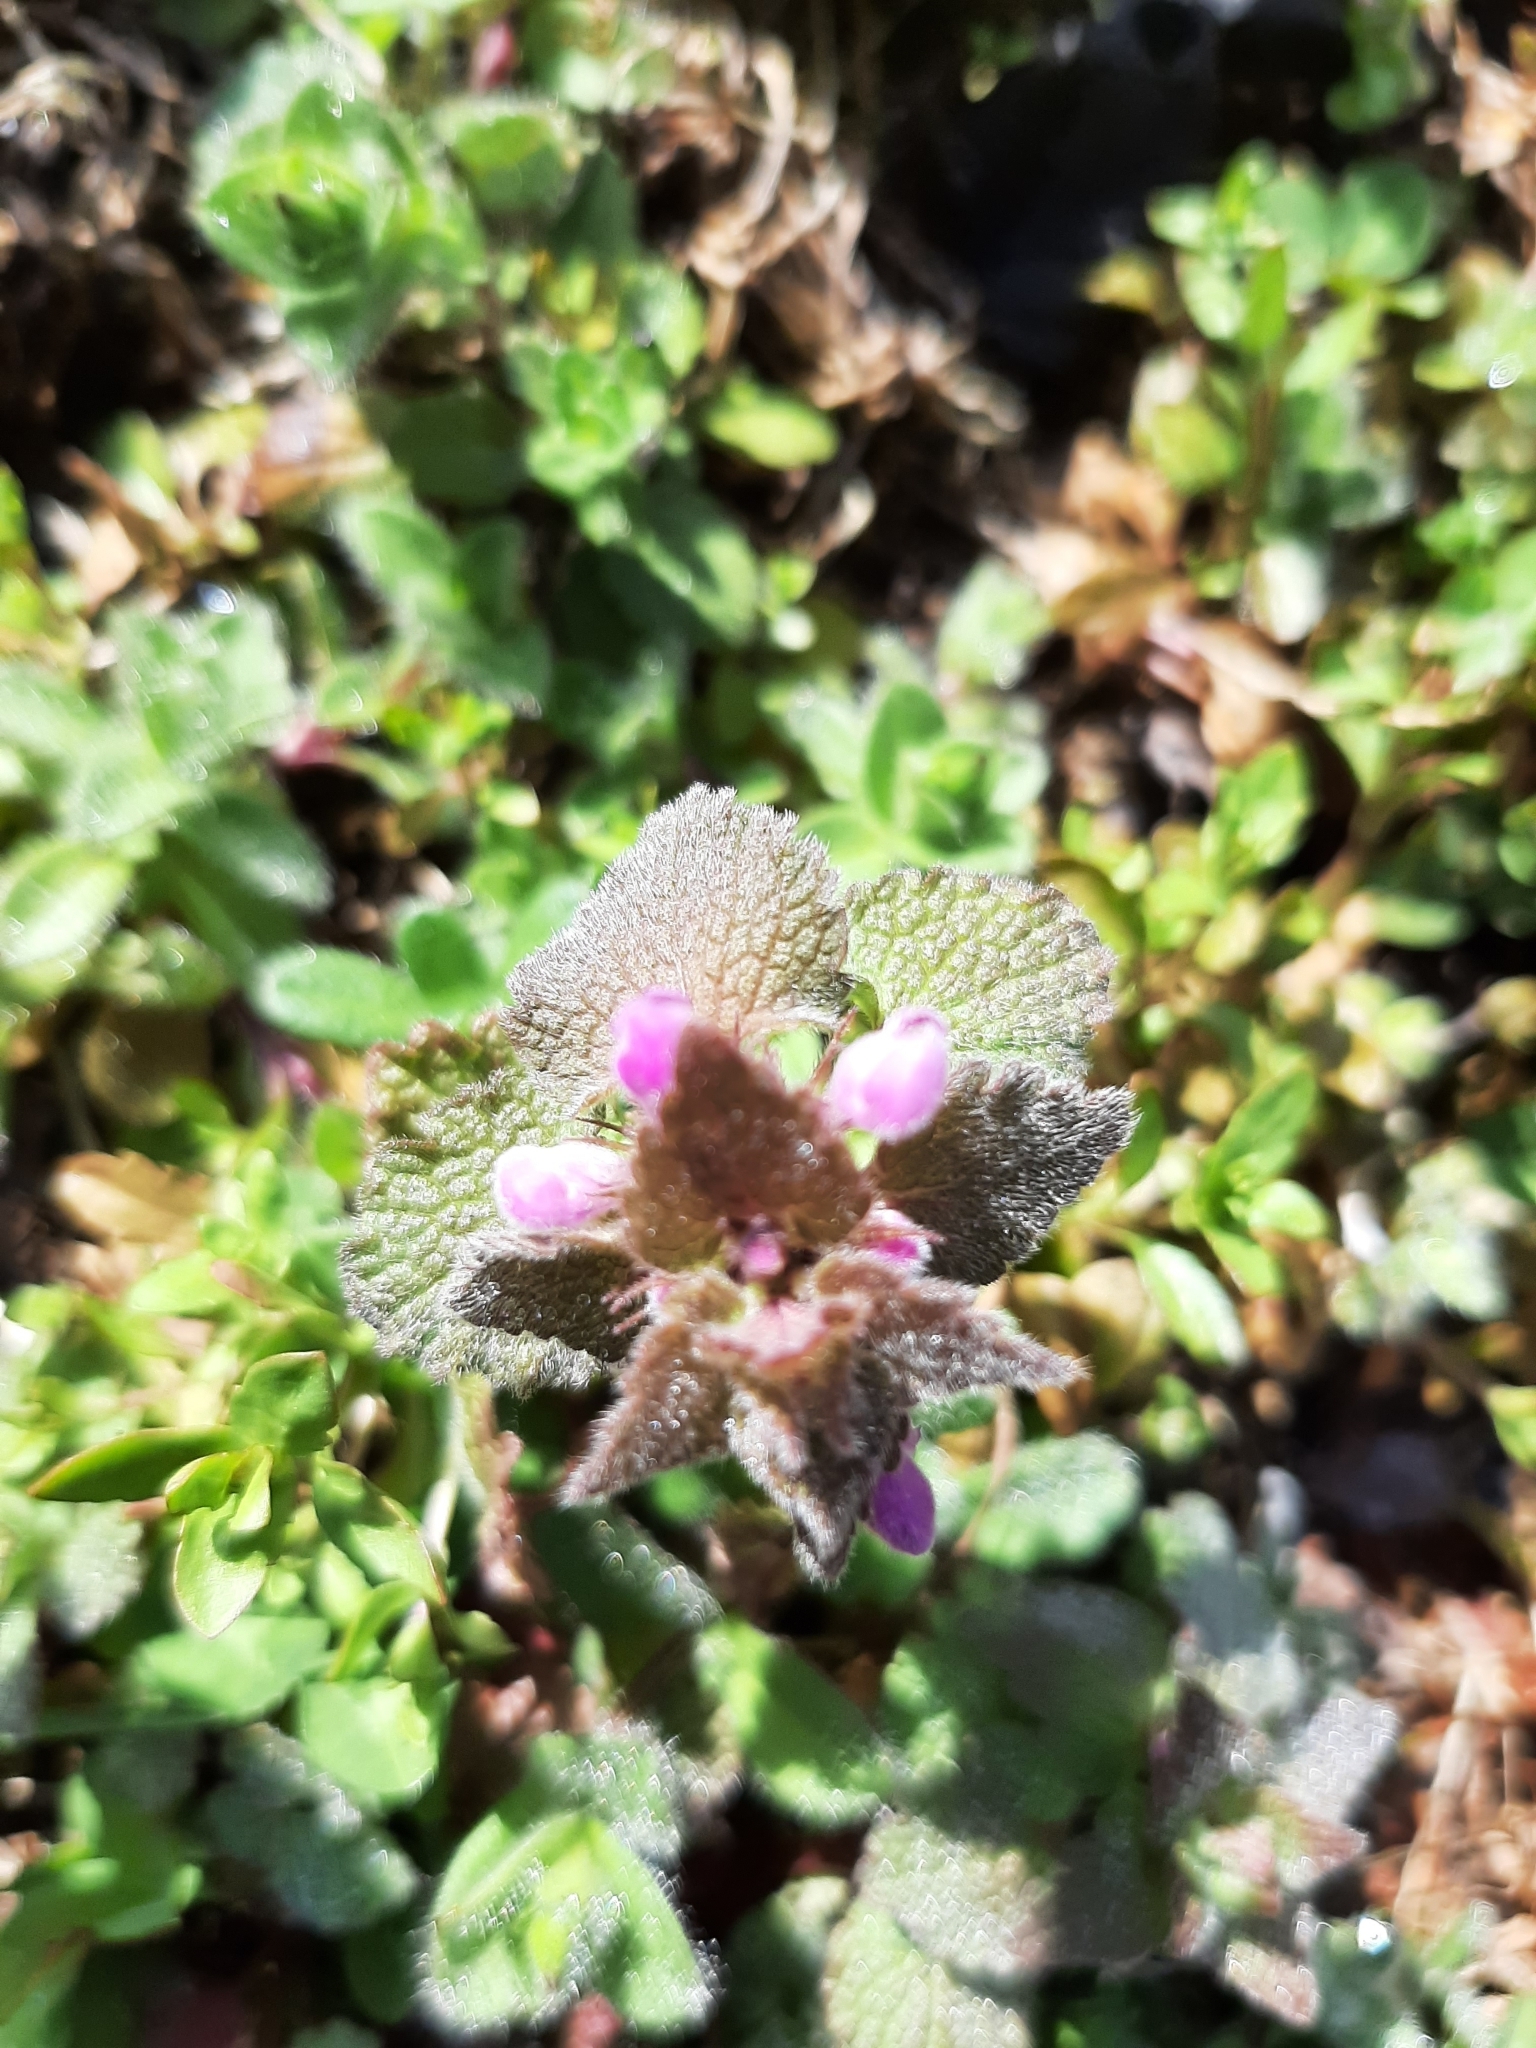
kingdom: Plantae
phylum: Tracheophyta
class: Magnoliopsida
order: Lamiales
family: Lamiaceae
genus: Lamium
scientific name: Lamium purpureum
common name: Red dead-nettle
